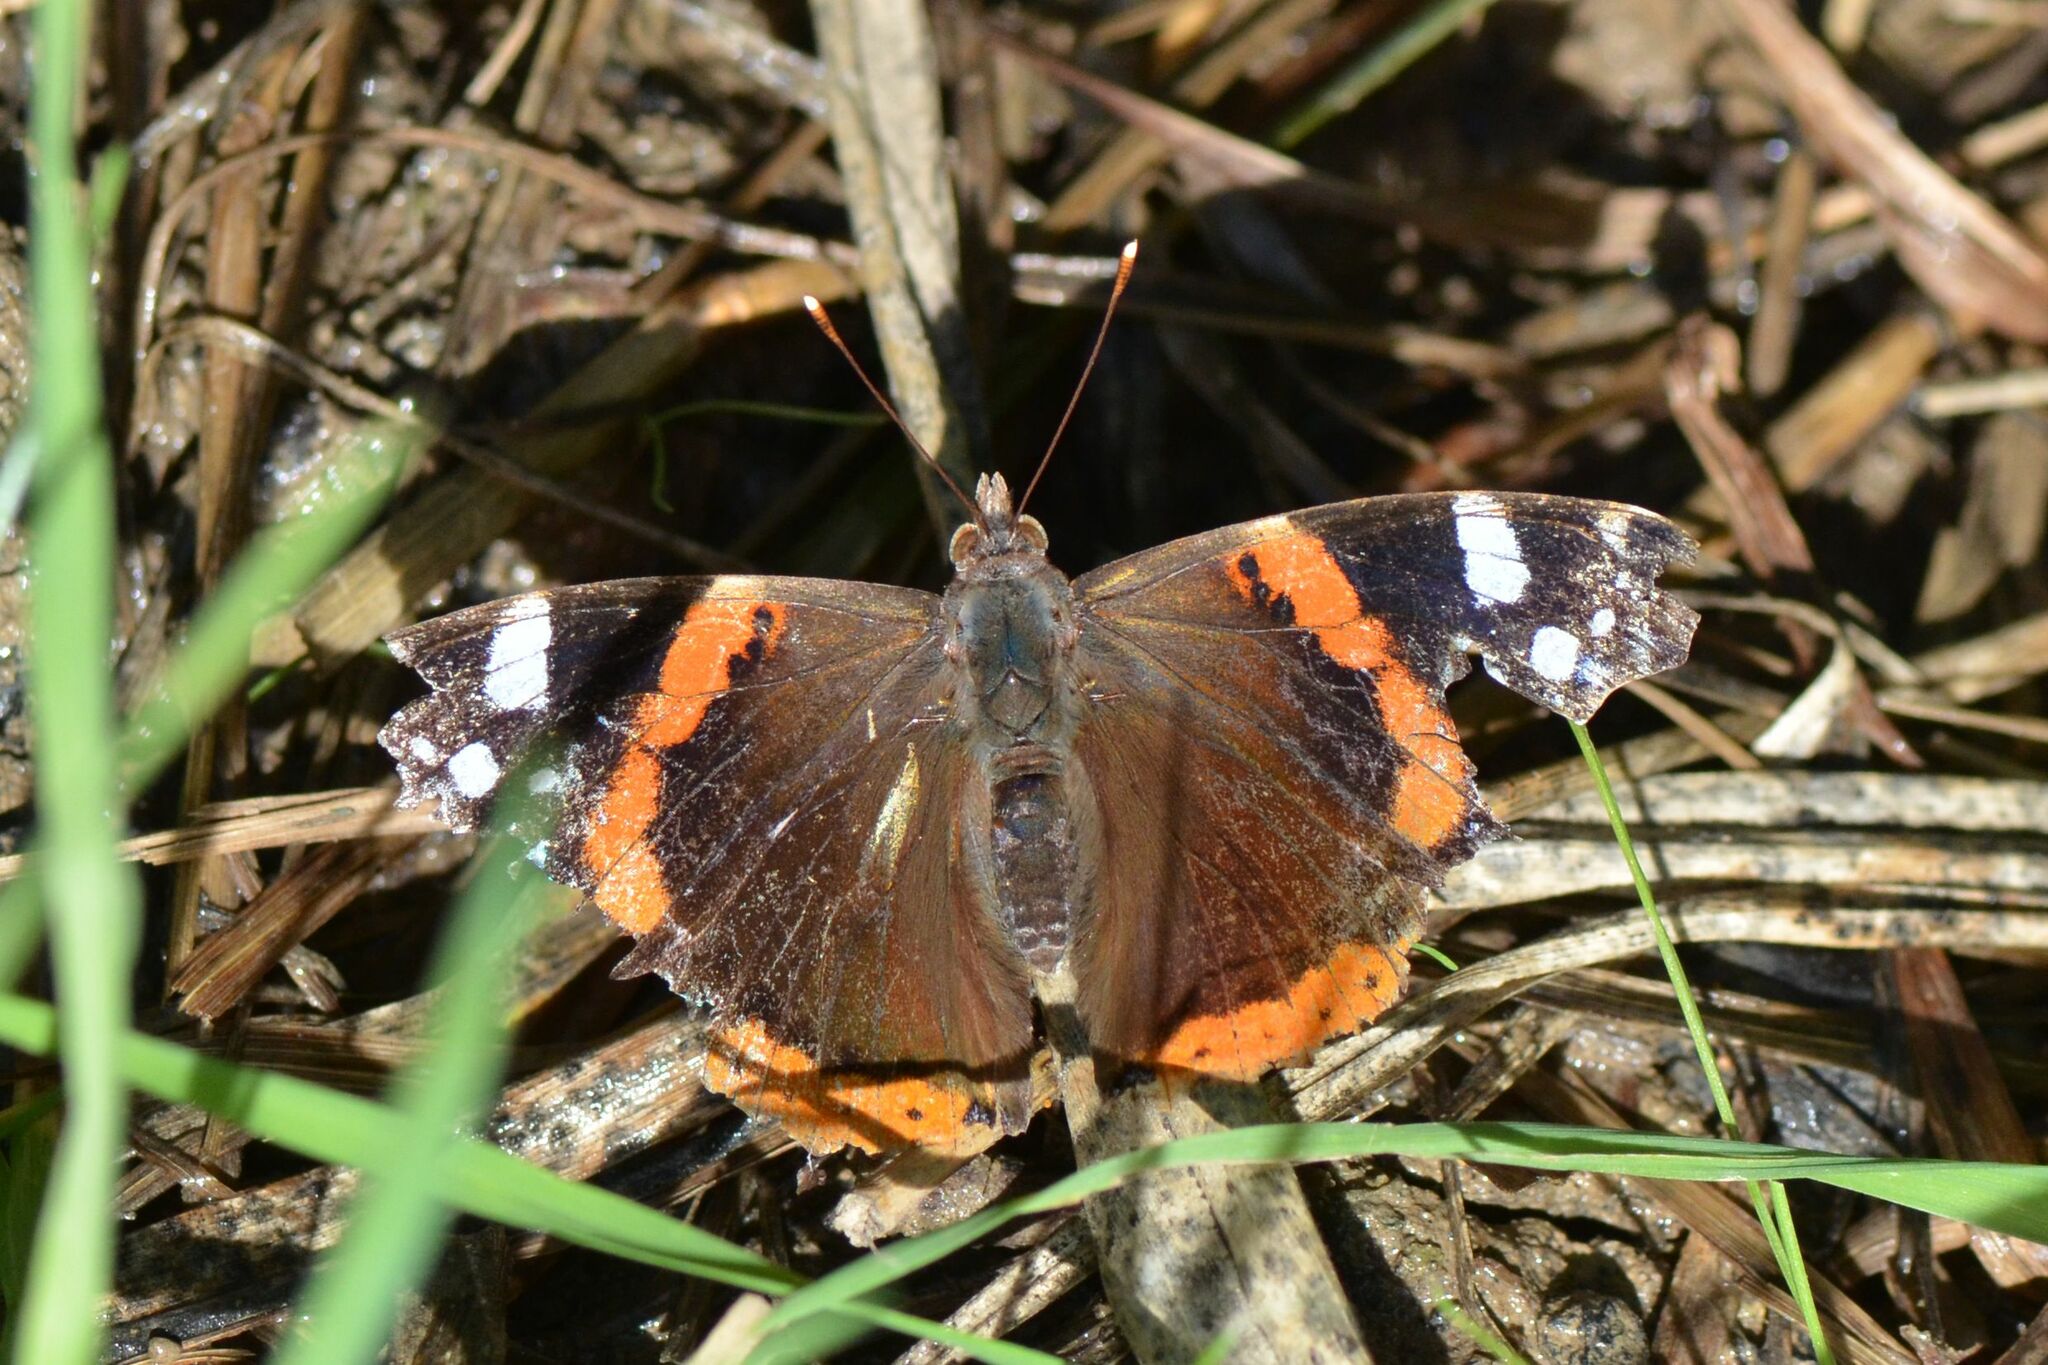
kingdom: Animalia
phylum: Arthropoda
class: Insecta
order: Lepidoptera
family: Nymphalidae
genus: Vanessa
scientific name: Vanessa atalanta
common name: Red admiral
